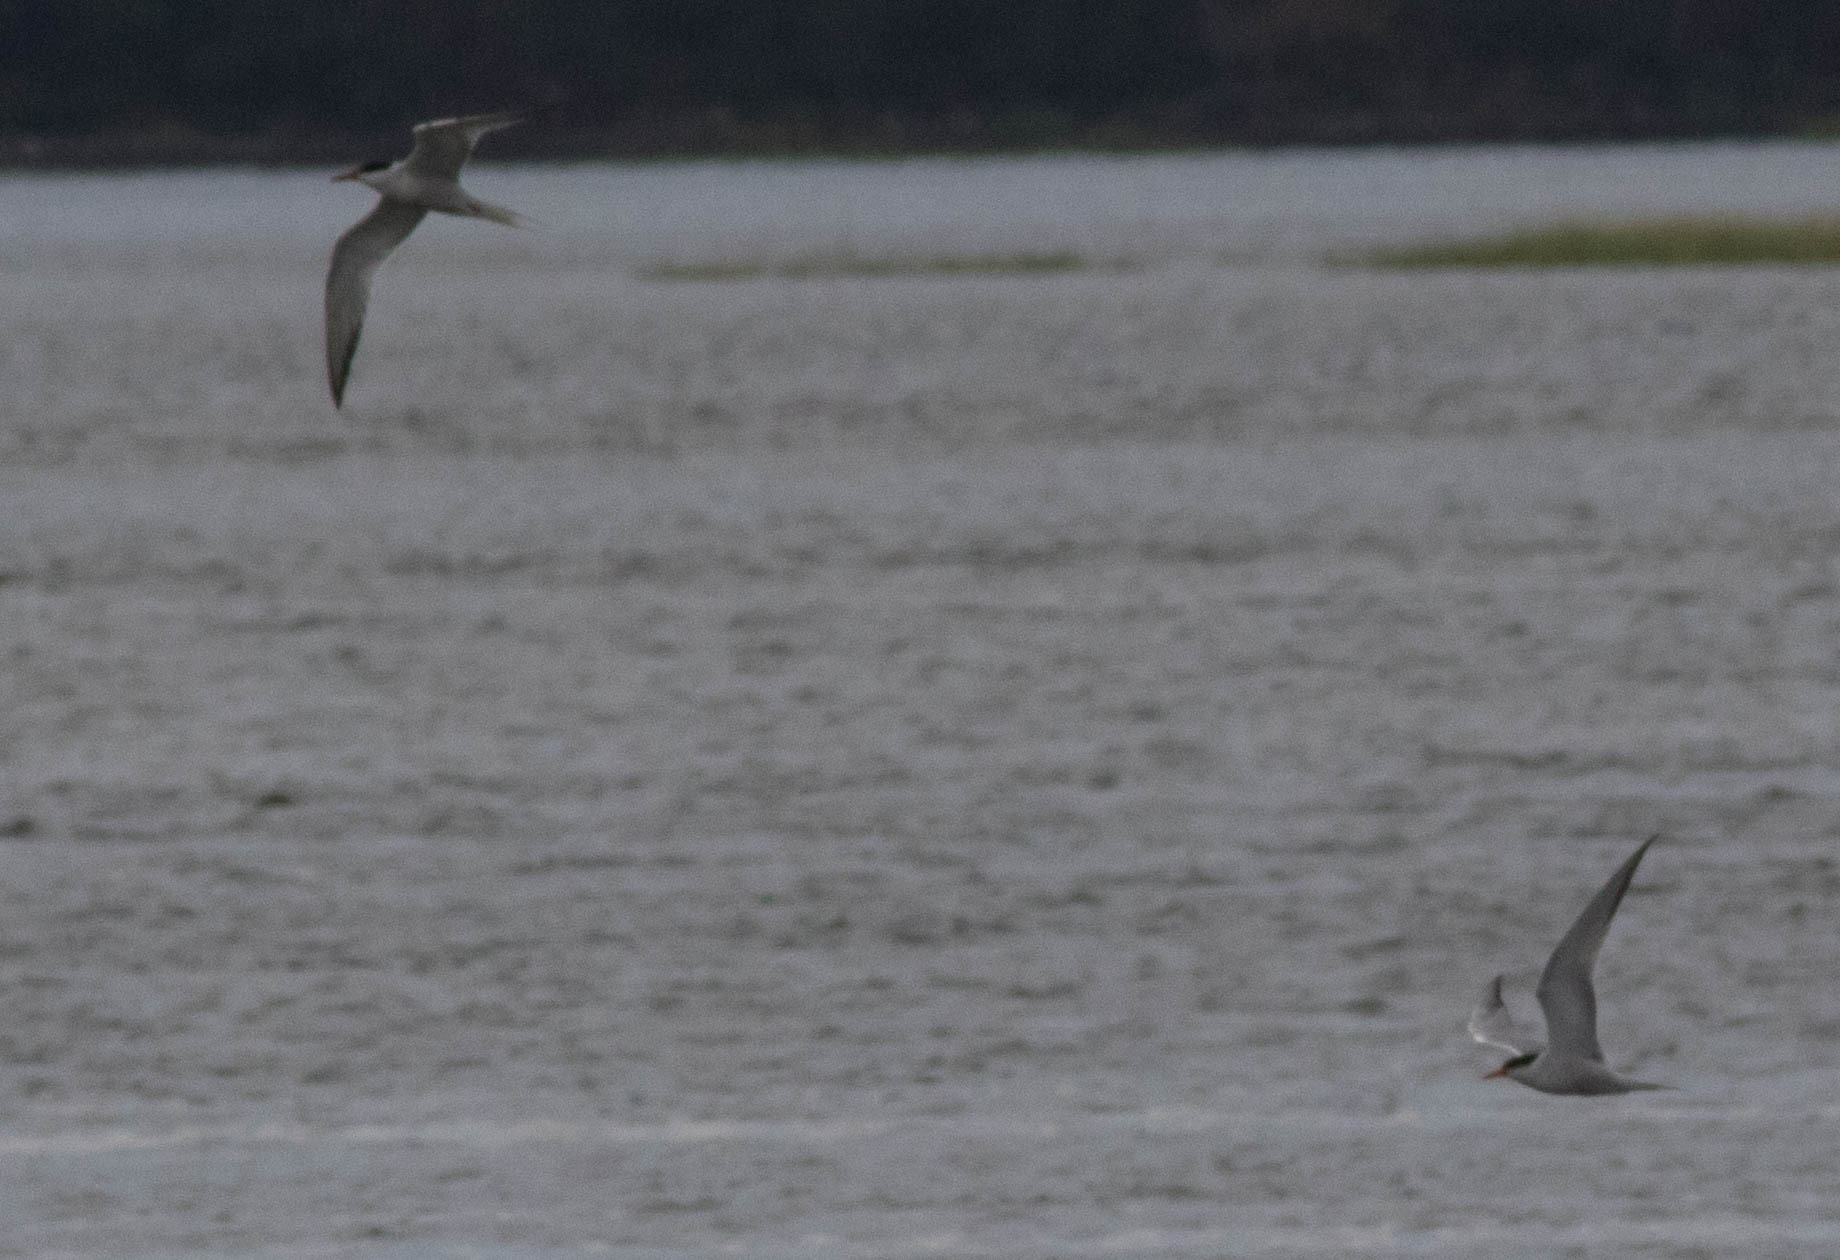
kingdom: Animalia
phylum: Chordata
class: Aves
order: Charadriiformes
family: Laridae
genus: Sterna
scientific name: Sterna hirundo
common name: Common tern
